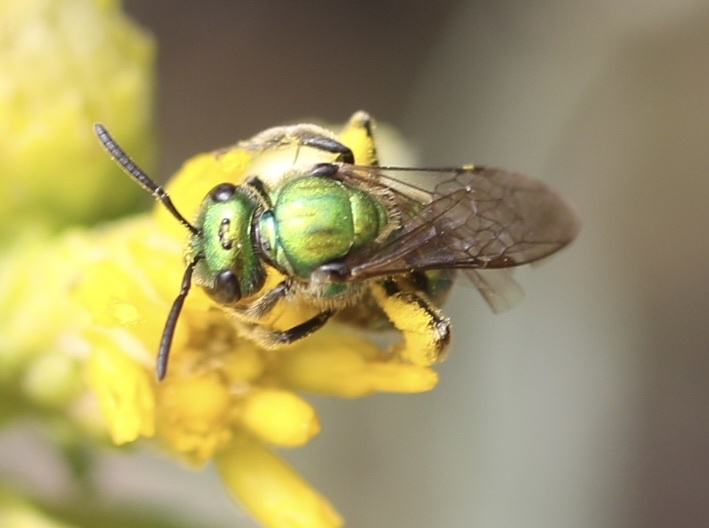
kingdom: Animalia
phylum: Arthropoda
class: Insecta
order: Hymenoptera
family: Halictidae
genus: Augochlorella
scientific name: Augochlorella pomoniella
